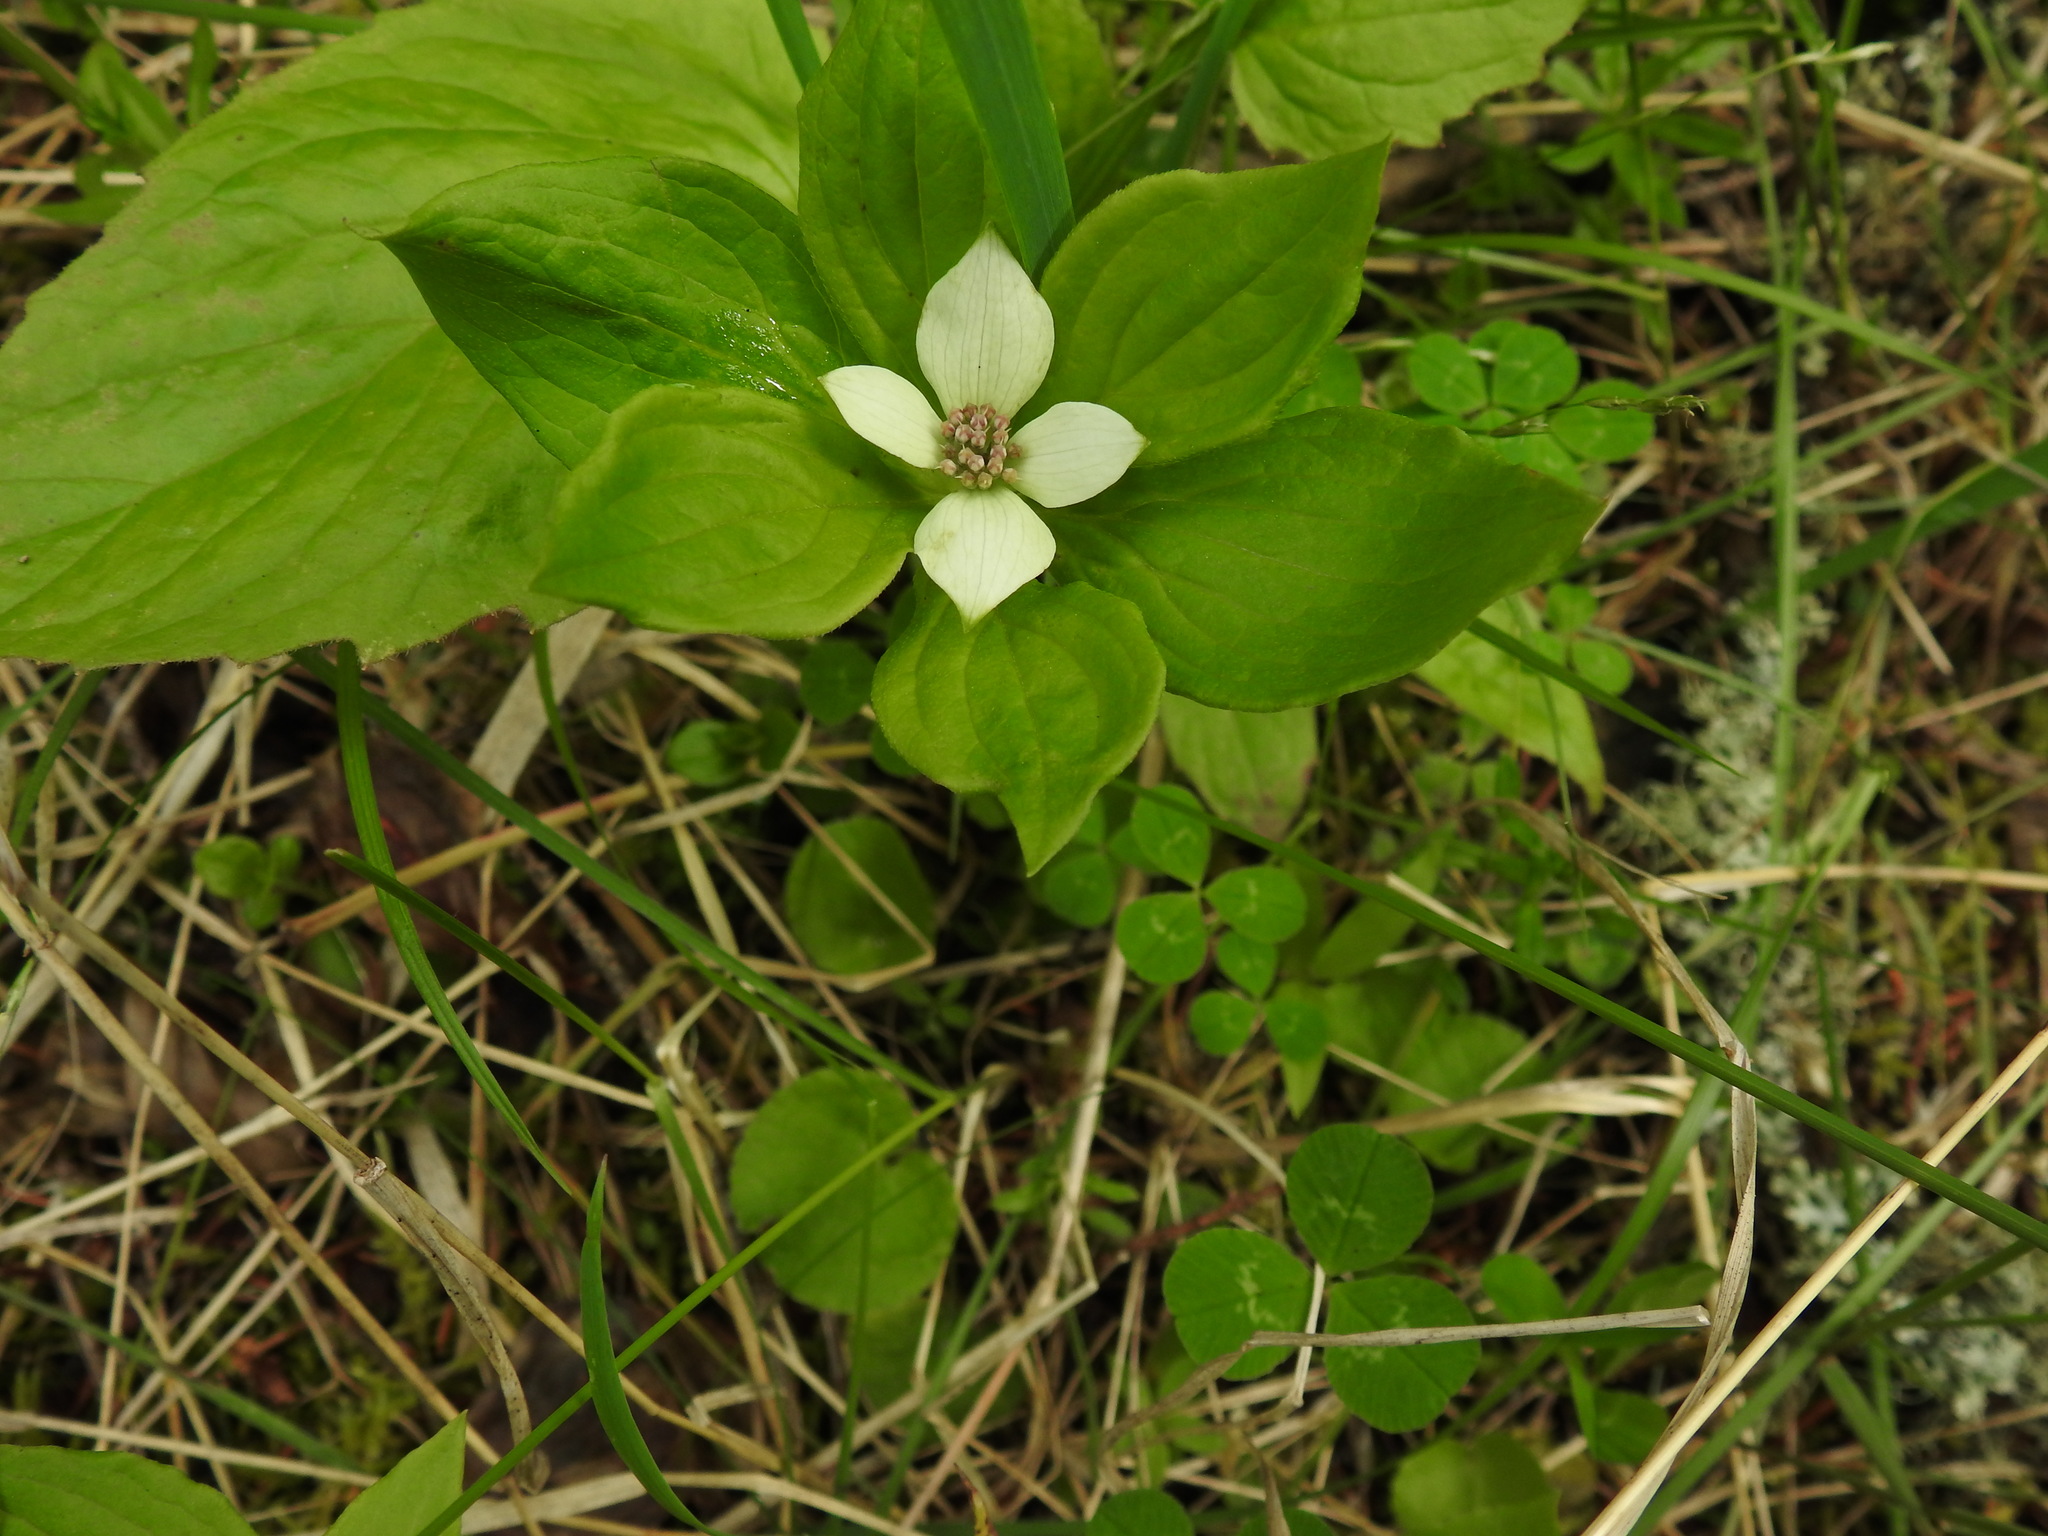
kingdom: Plantae
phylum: Tracheophyta
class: Magnoliopsida
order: Cornales
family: Cornaceae
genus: Cornus
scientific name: Cornus unalaschkensis
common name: Alaska bunchberry
